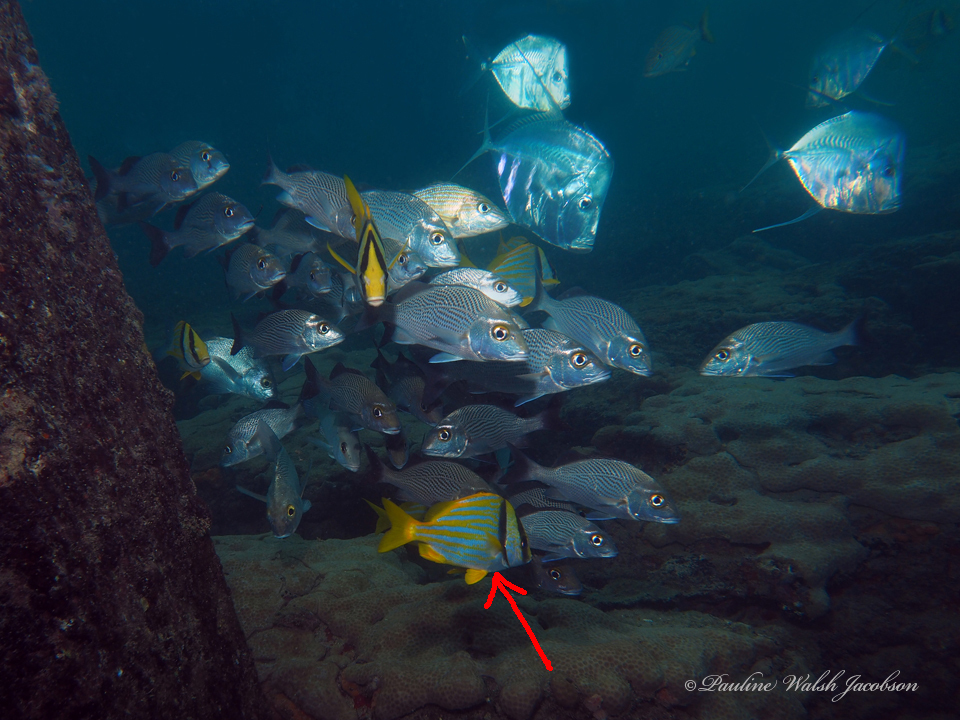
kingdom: Animalia
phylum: Chordata
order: Perciformes
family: Haemulidae
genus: Anisotremus
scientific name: Anisotremus virginicus
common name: Porkfish
